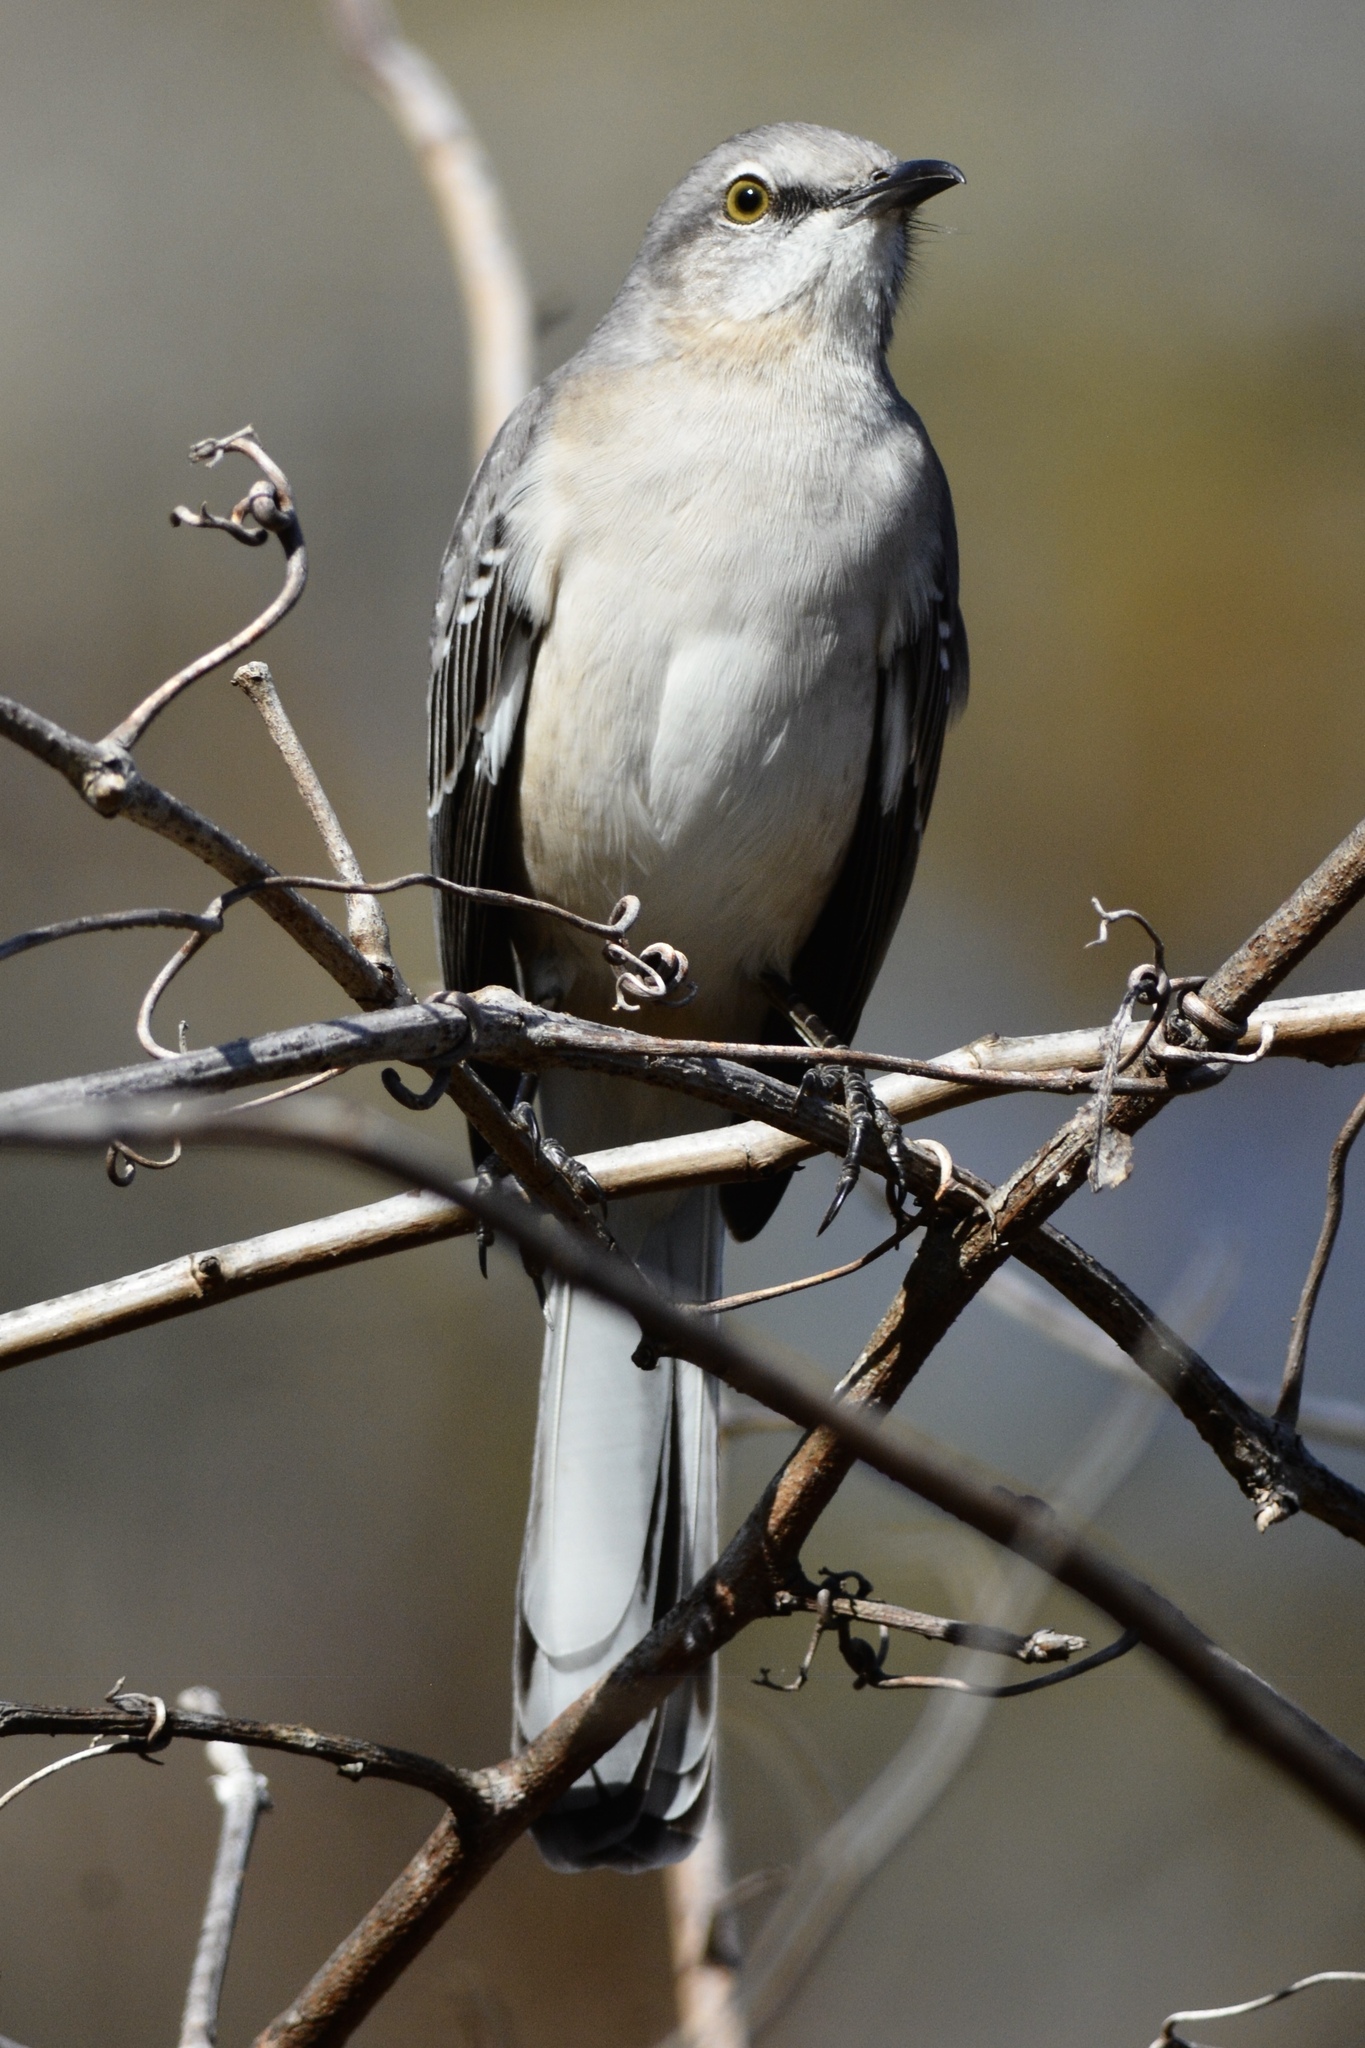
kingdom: Animalia
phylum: Chordata
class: Aves
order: Passeriformes
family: Mimidae
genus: Mimus
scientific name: Mimus polyglottos
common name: Northern mockingbird
